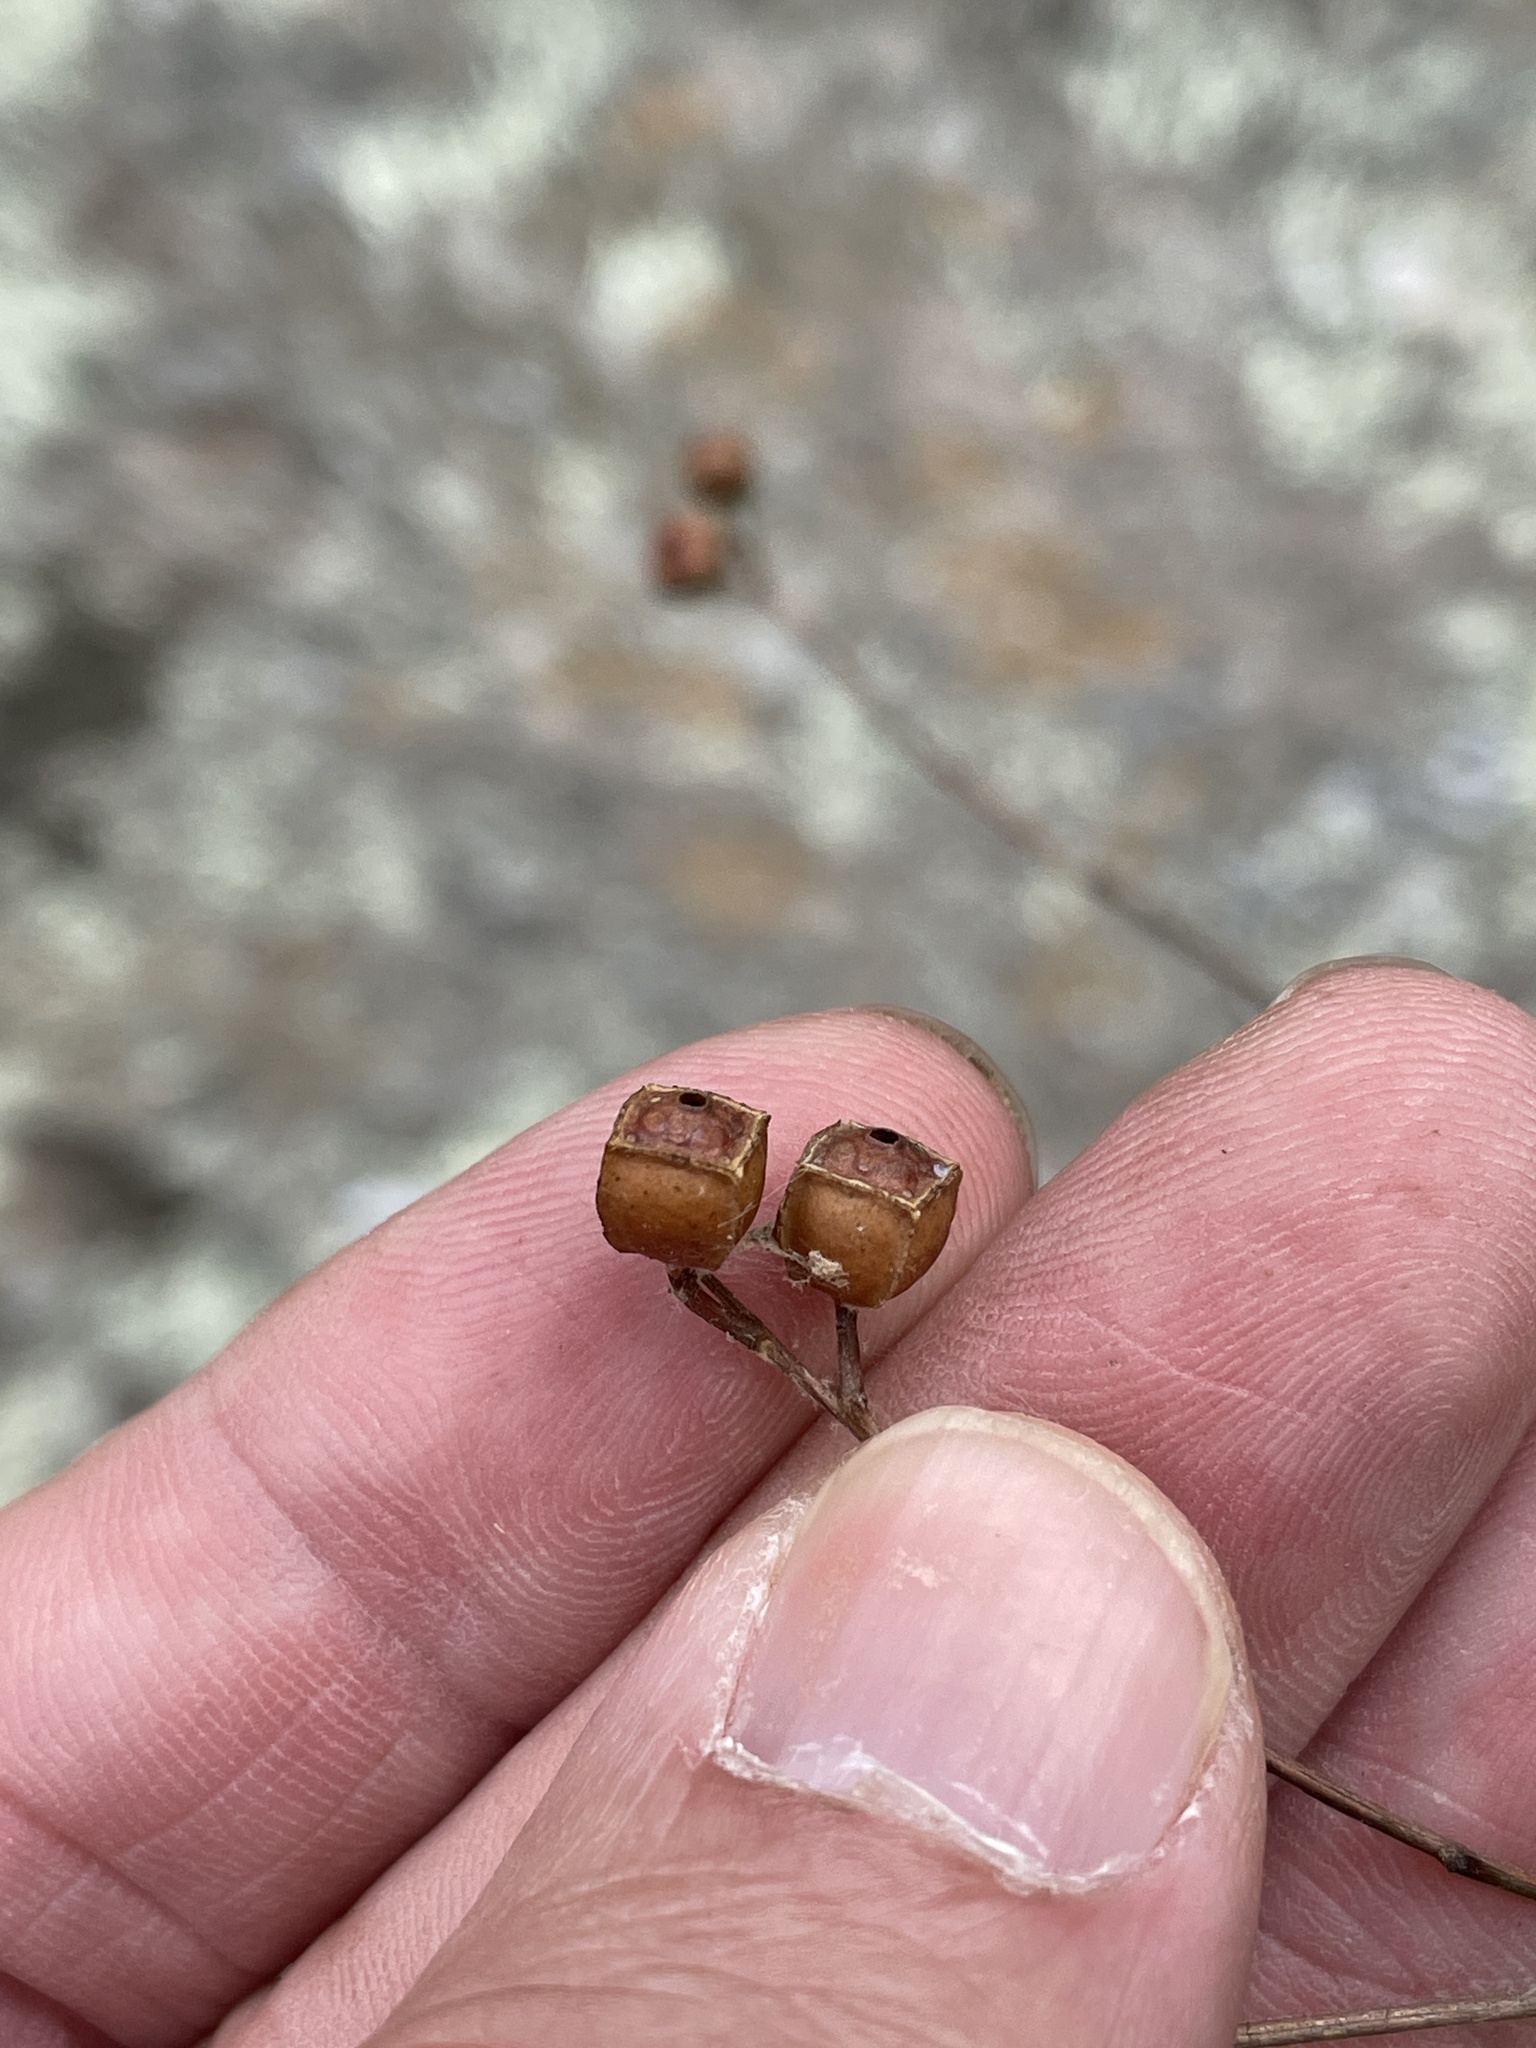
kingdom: Plantae
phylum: Tracheophyta
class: Magnoliopsida
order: Myrtales
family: Onagraceae
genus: Ludwigia
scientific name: Ludwigia alternifolia
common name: Rattlebox
